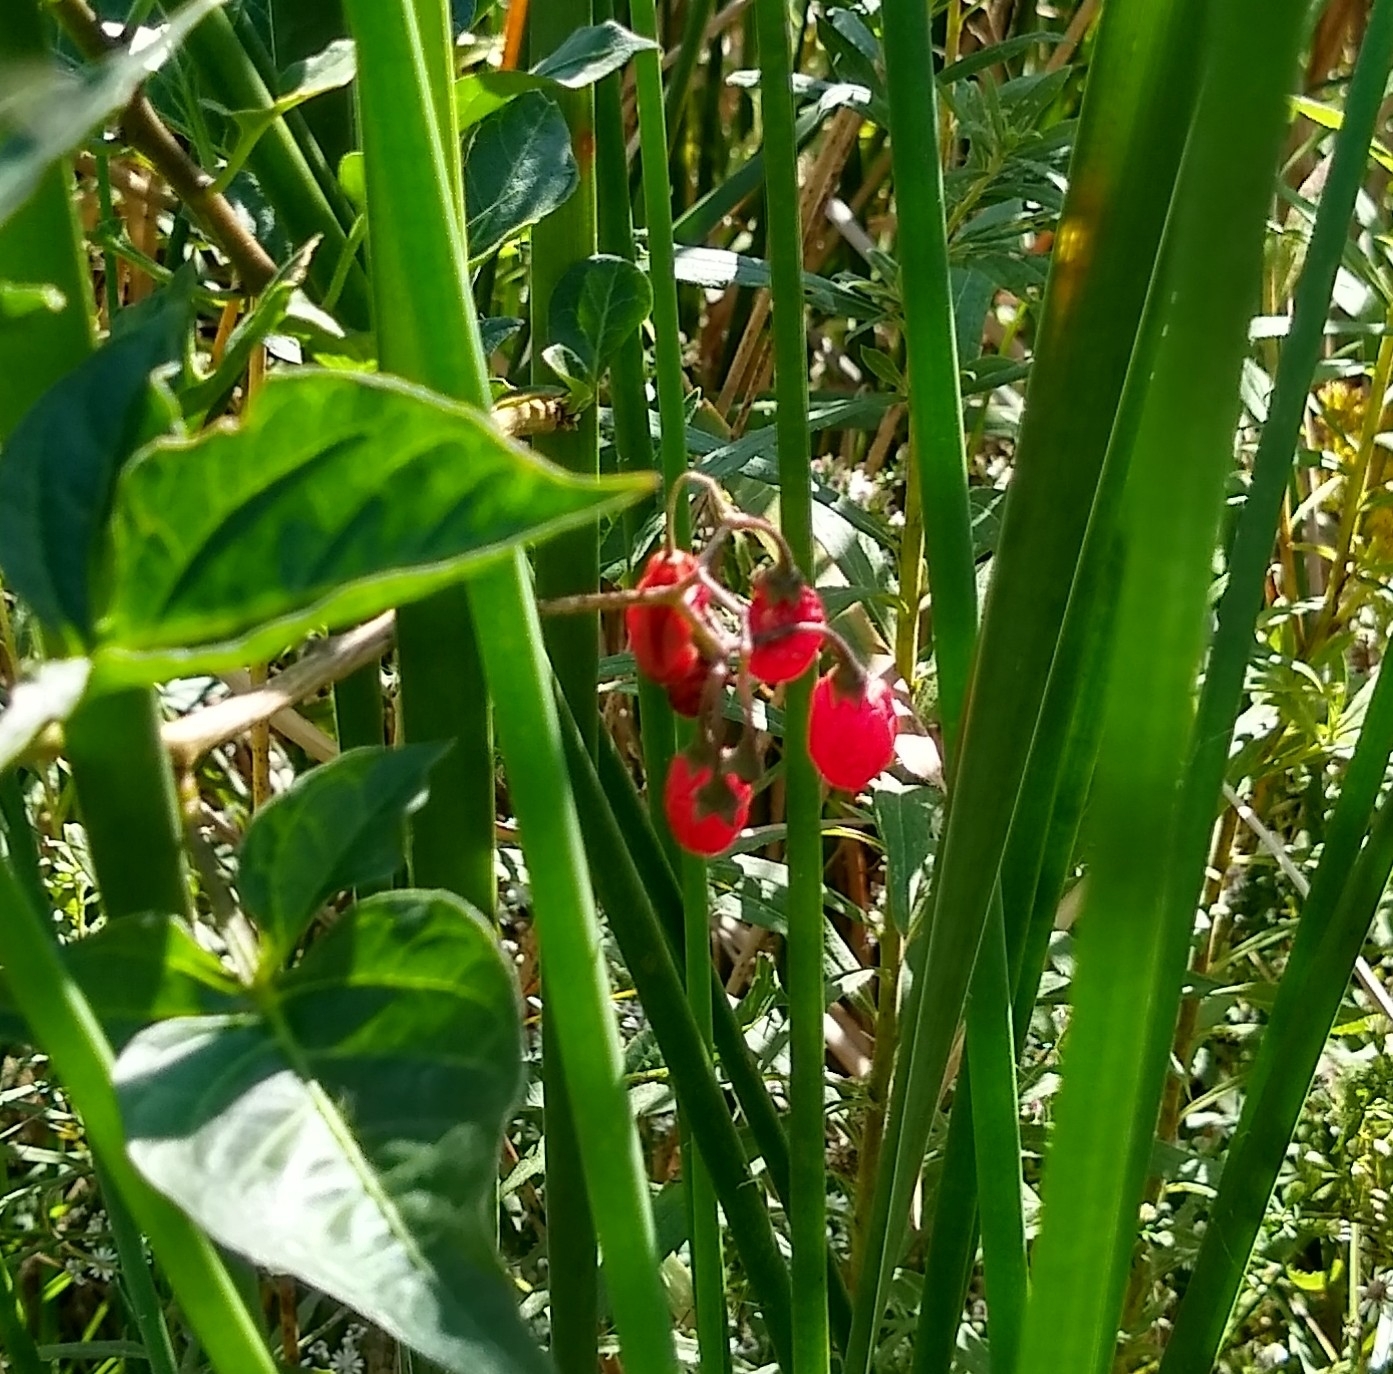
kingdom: Plantae
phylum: Tracheophyta
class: Magnoliopsida
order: Solanales
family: Solanaceae
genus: Solanum
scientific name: Solanum dulcamara
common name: Climbing nightshade
